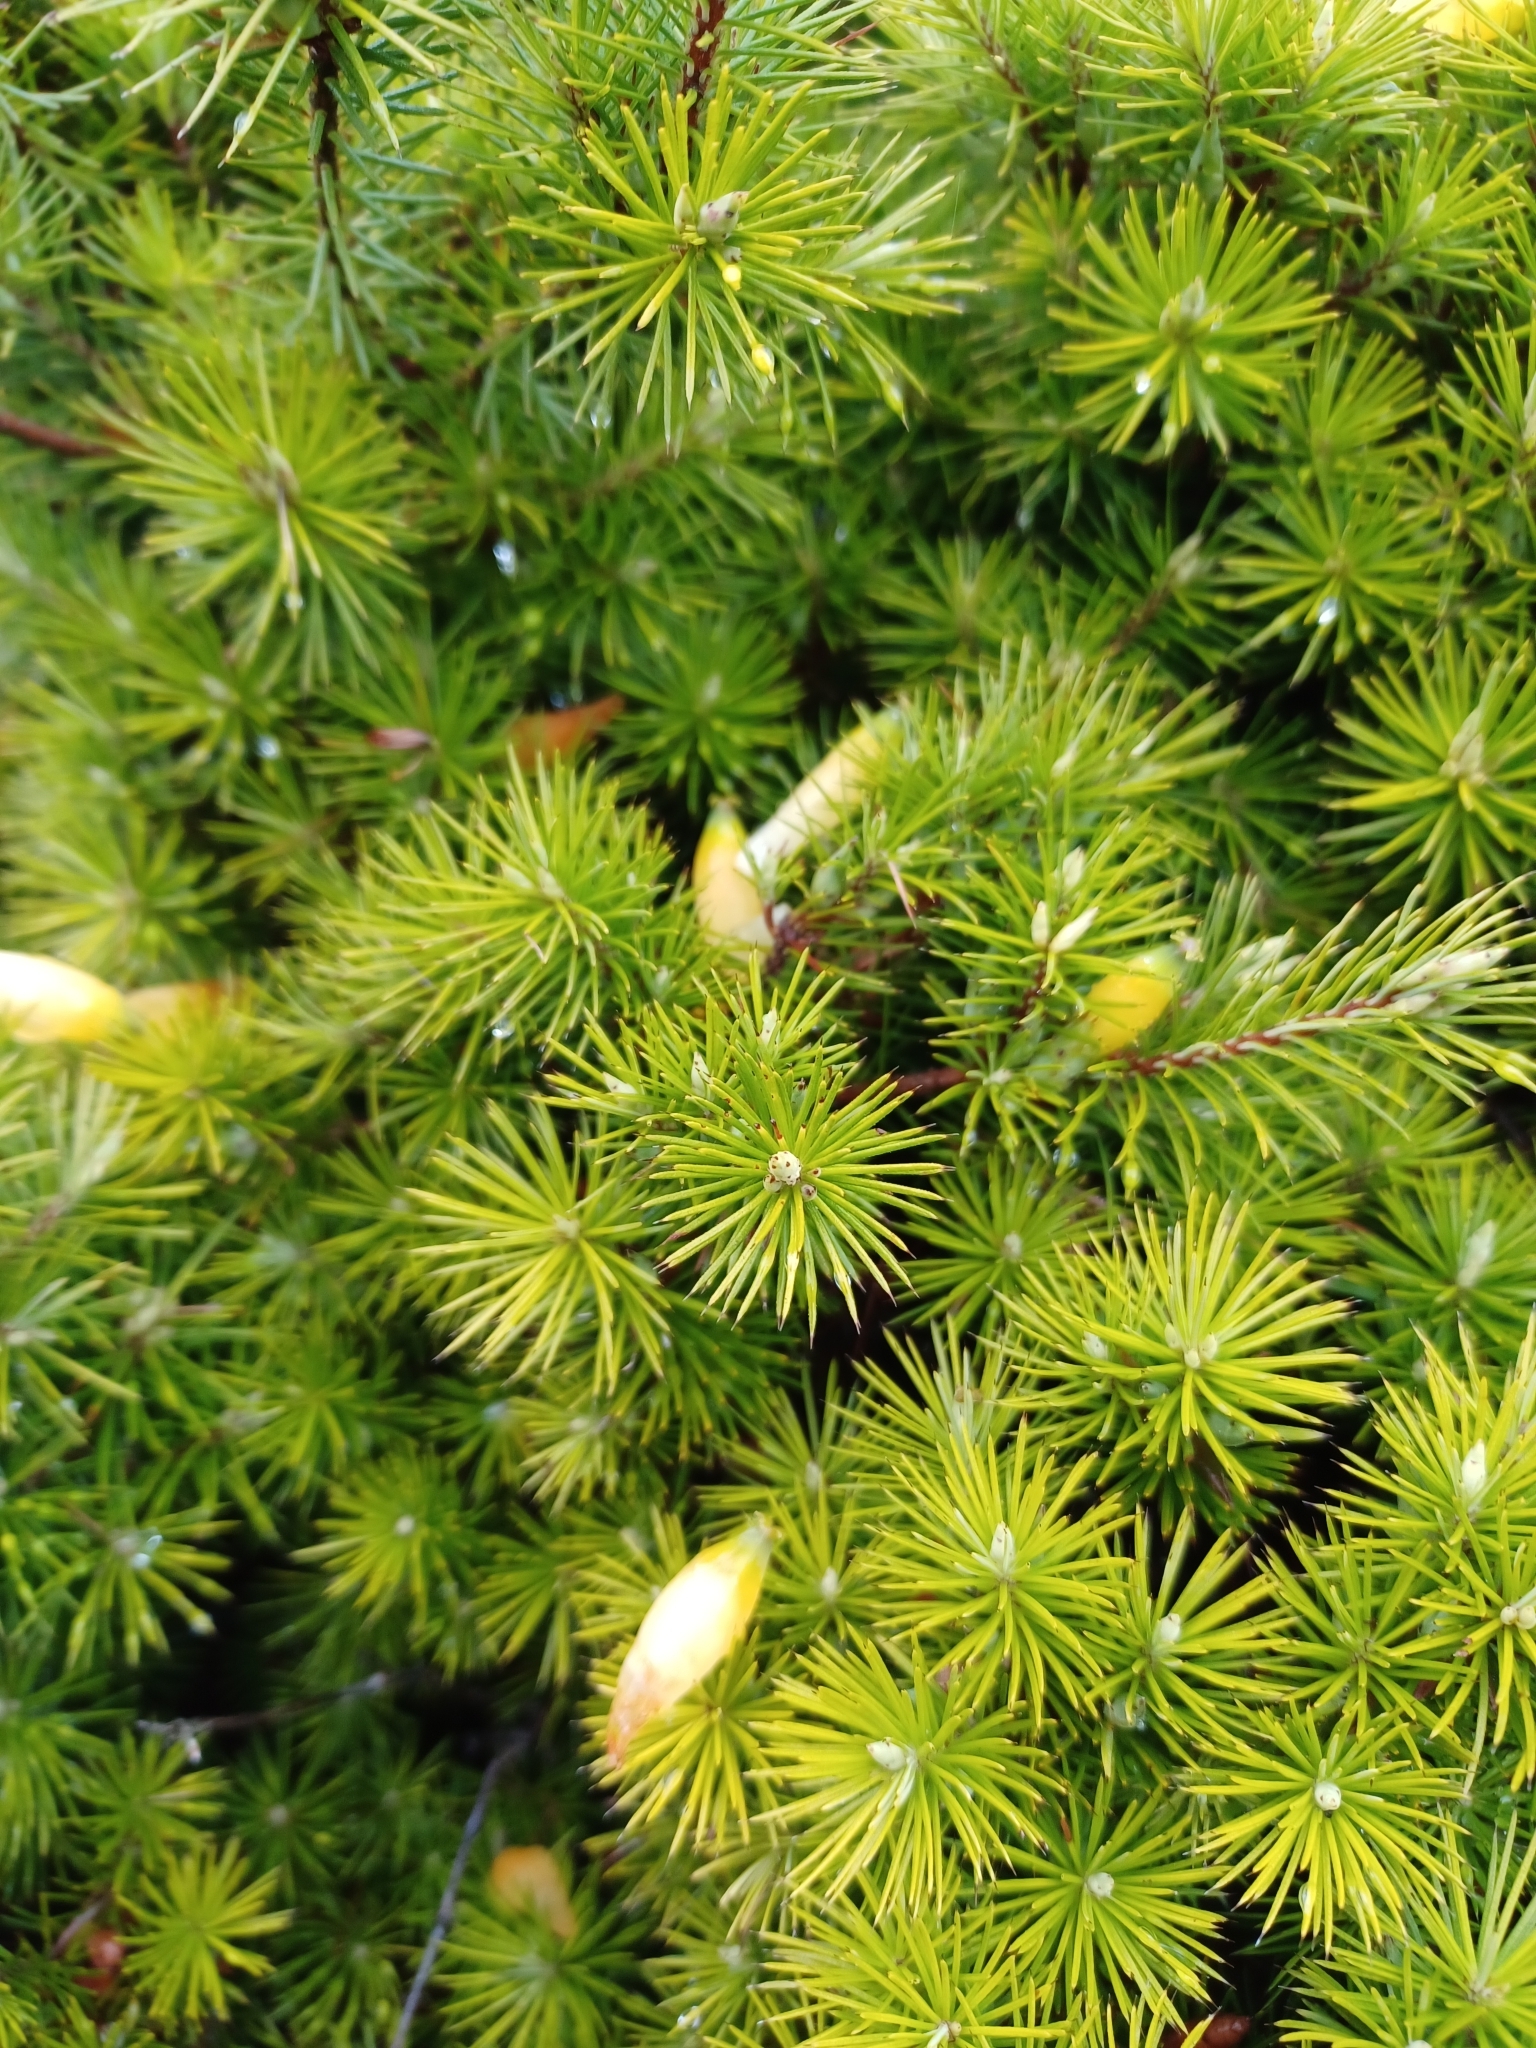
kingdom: Plantae
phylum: Tracheophyta
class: Magnoliopsida
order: Ericales
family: Ericaceae
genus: Stenanthera
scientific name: Stenanthera pinifolia
